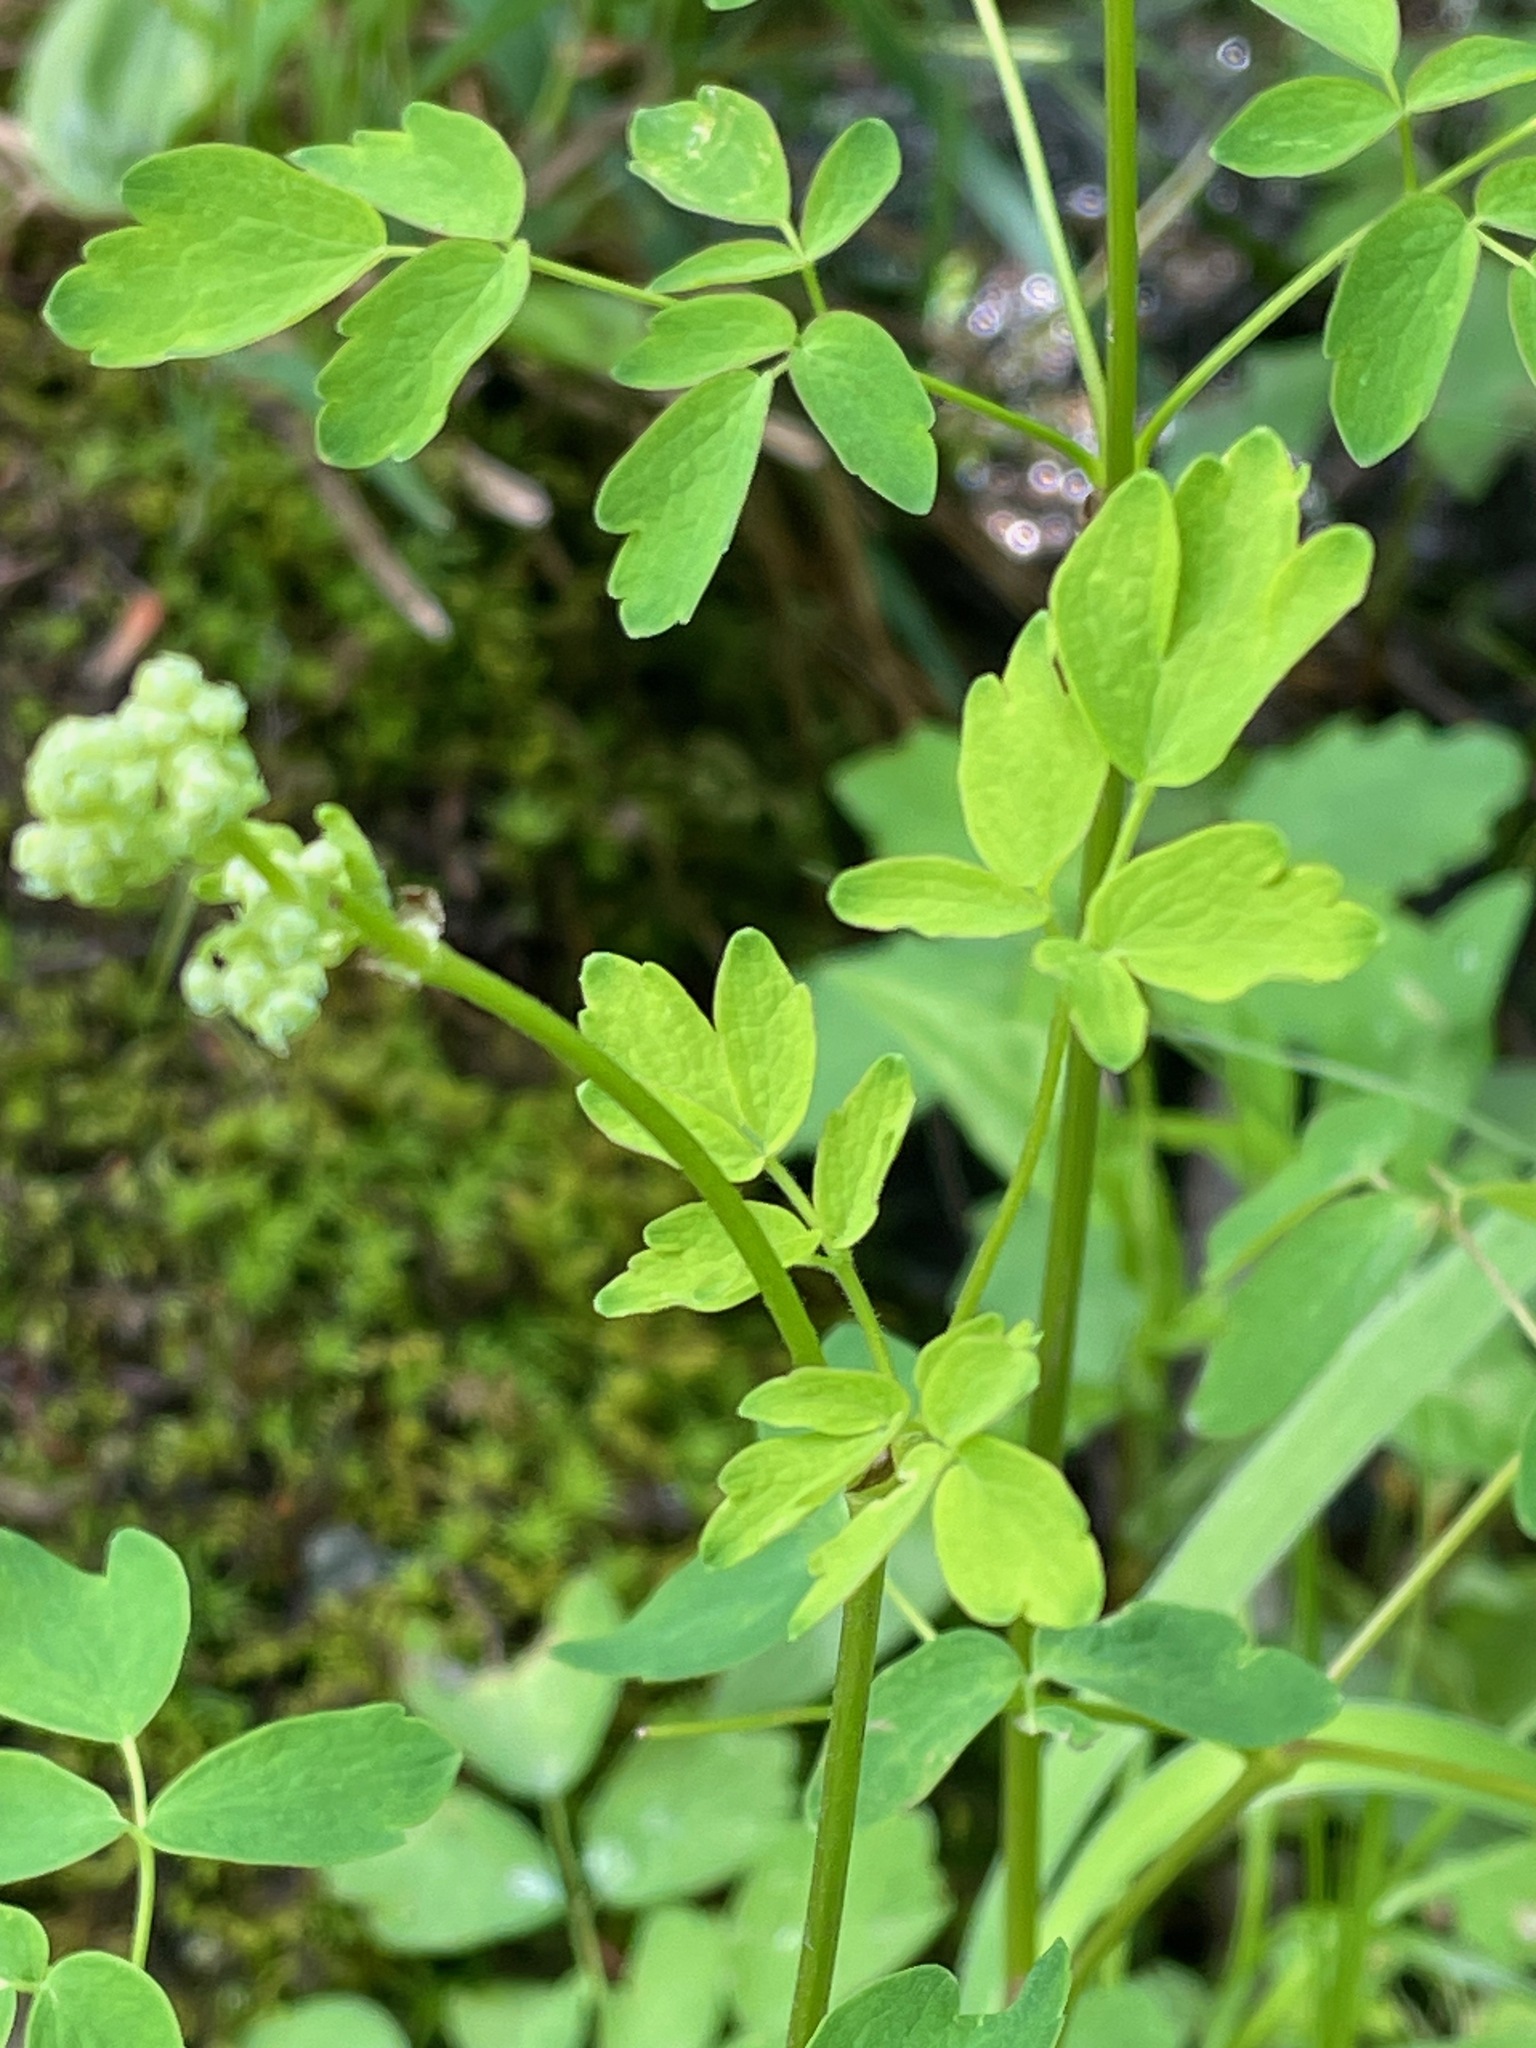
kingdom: Plantae
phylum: Tracheophyta
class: Magnoliopsida
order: Ranunculales
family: Ranunculaceae
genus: Thalictrum
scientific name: Thalictrum pubescens
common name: King-of-the-meadow
